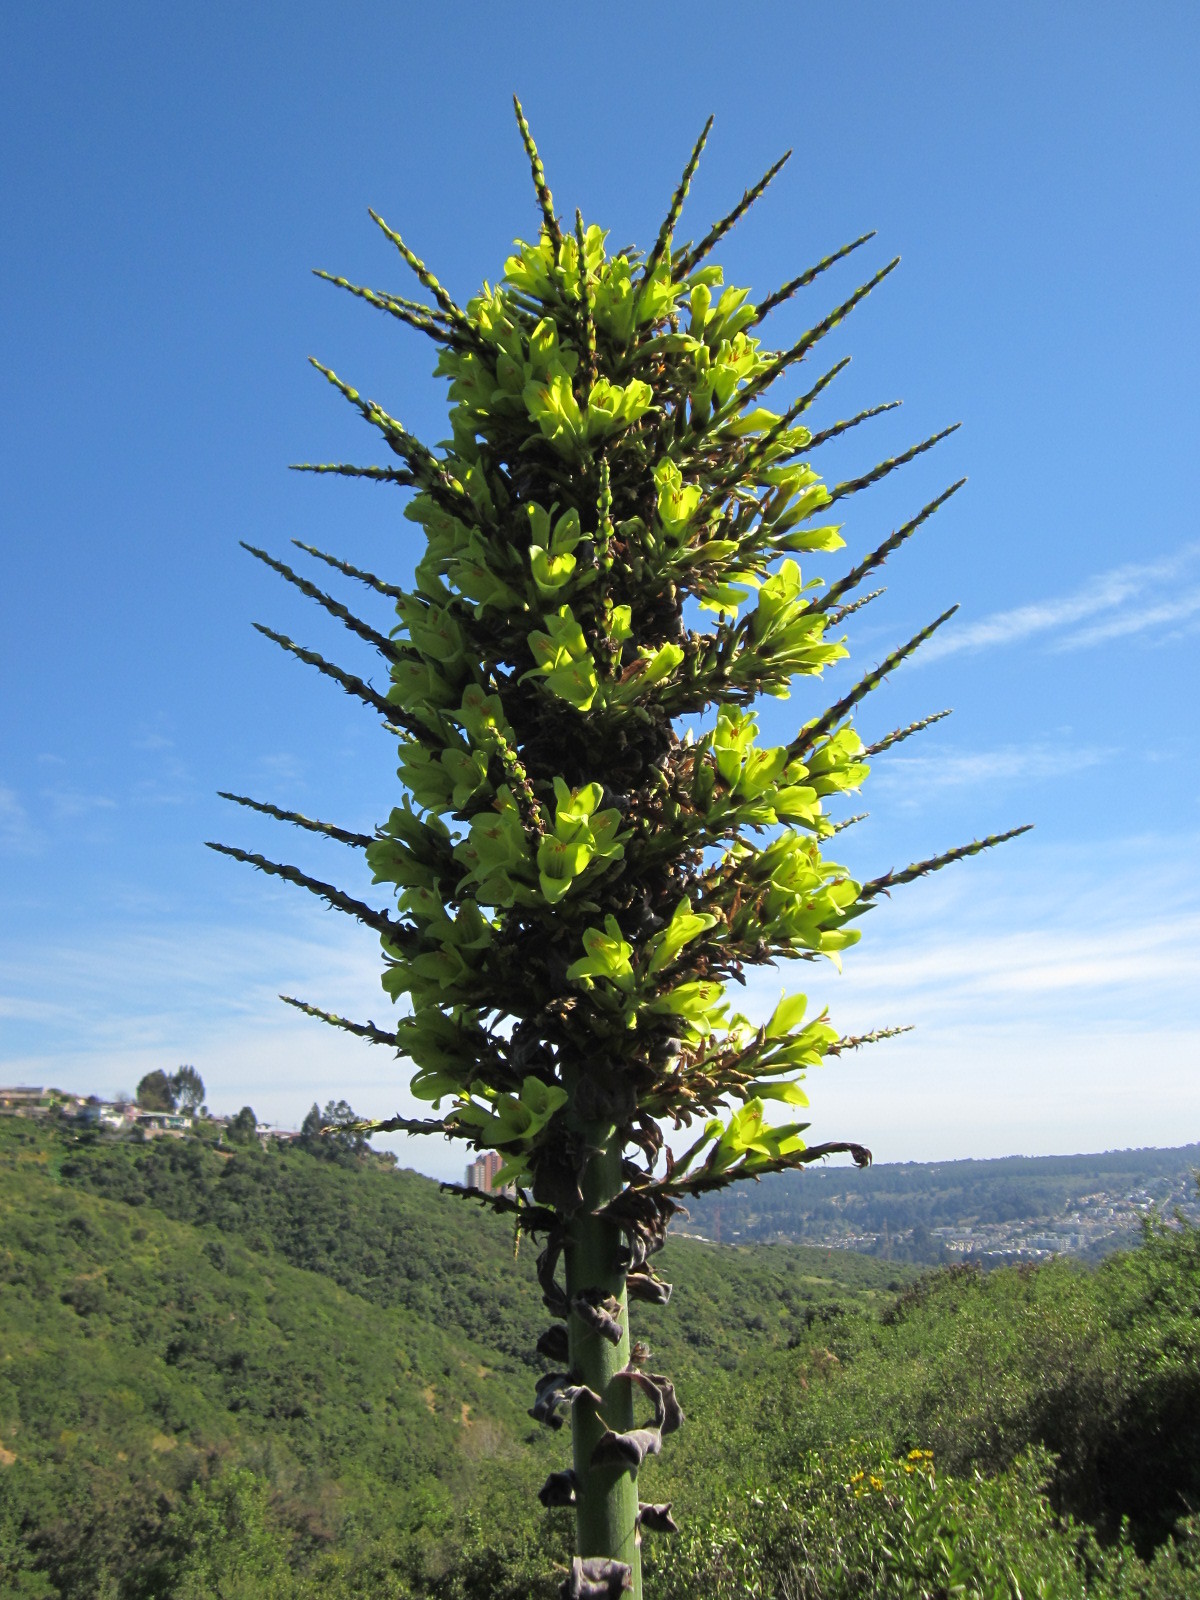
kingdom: Plantae
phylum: Tracheophyta
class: Liliopsida
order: Poales
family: Bromeliaceae
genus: Puya
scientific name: Puya chilensis
